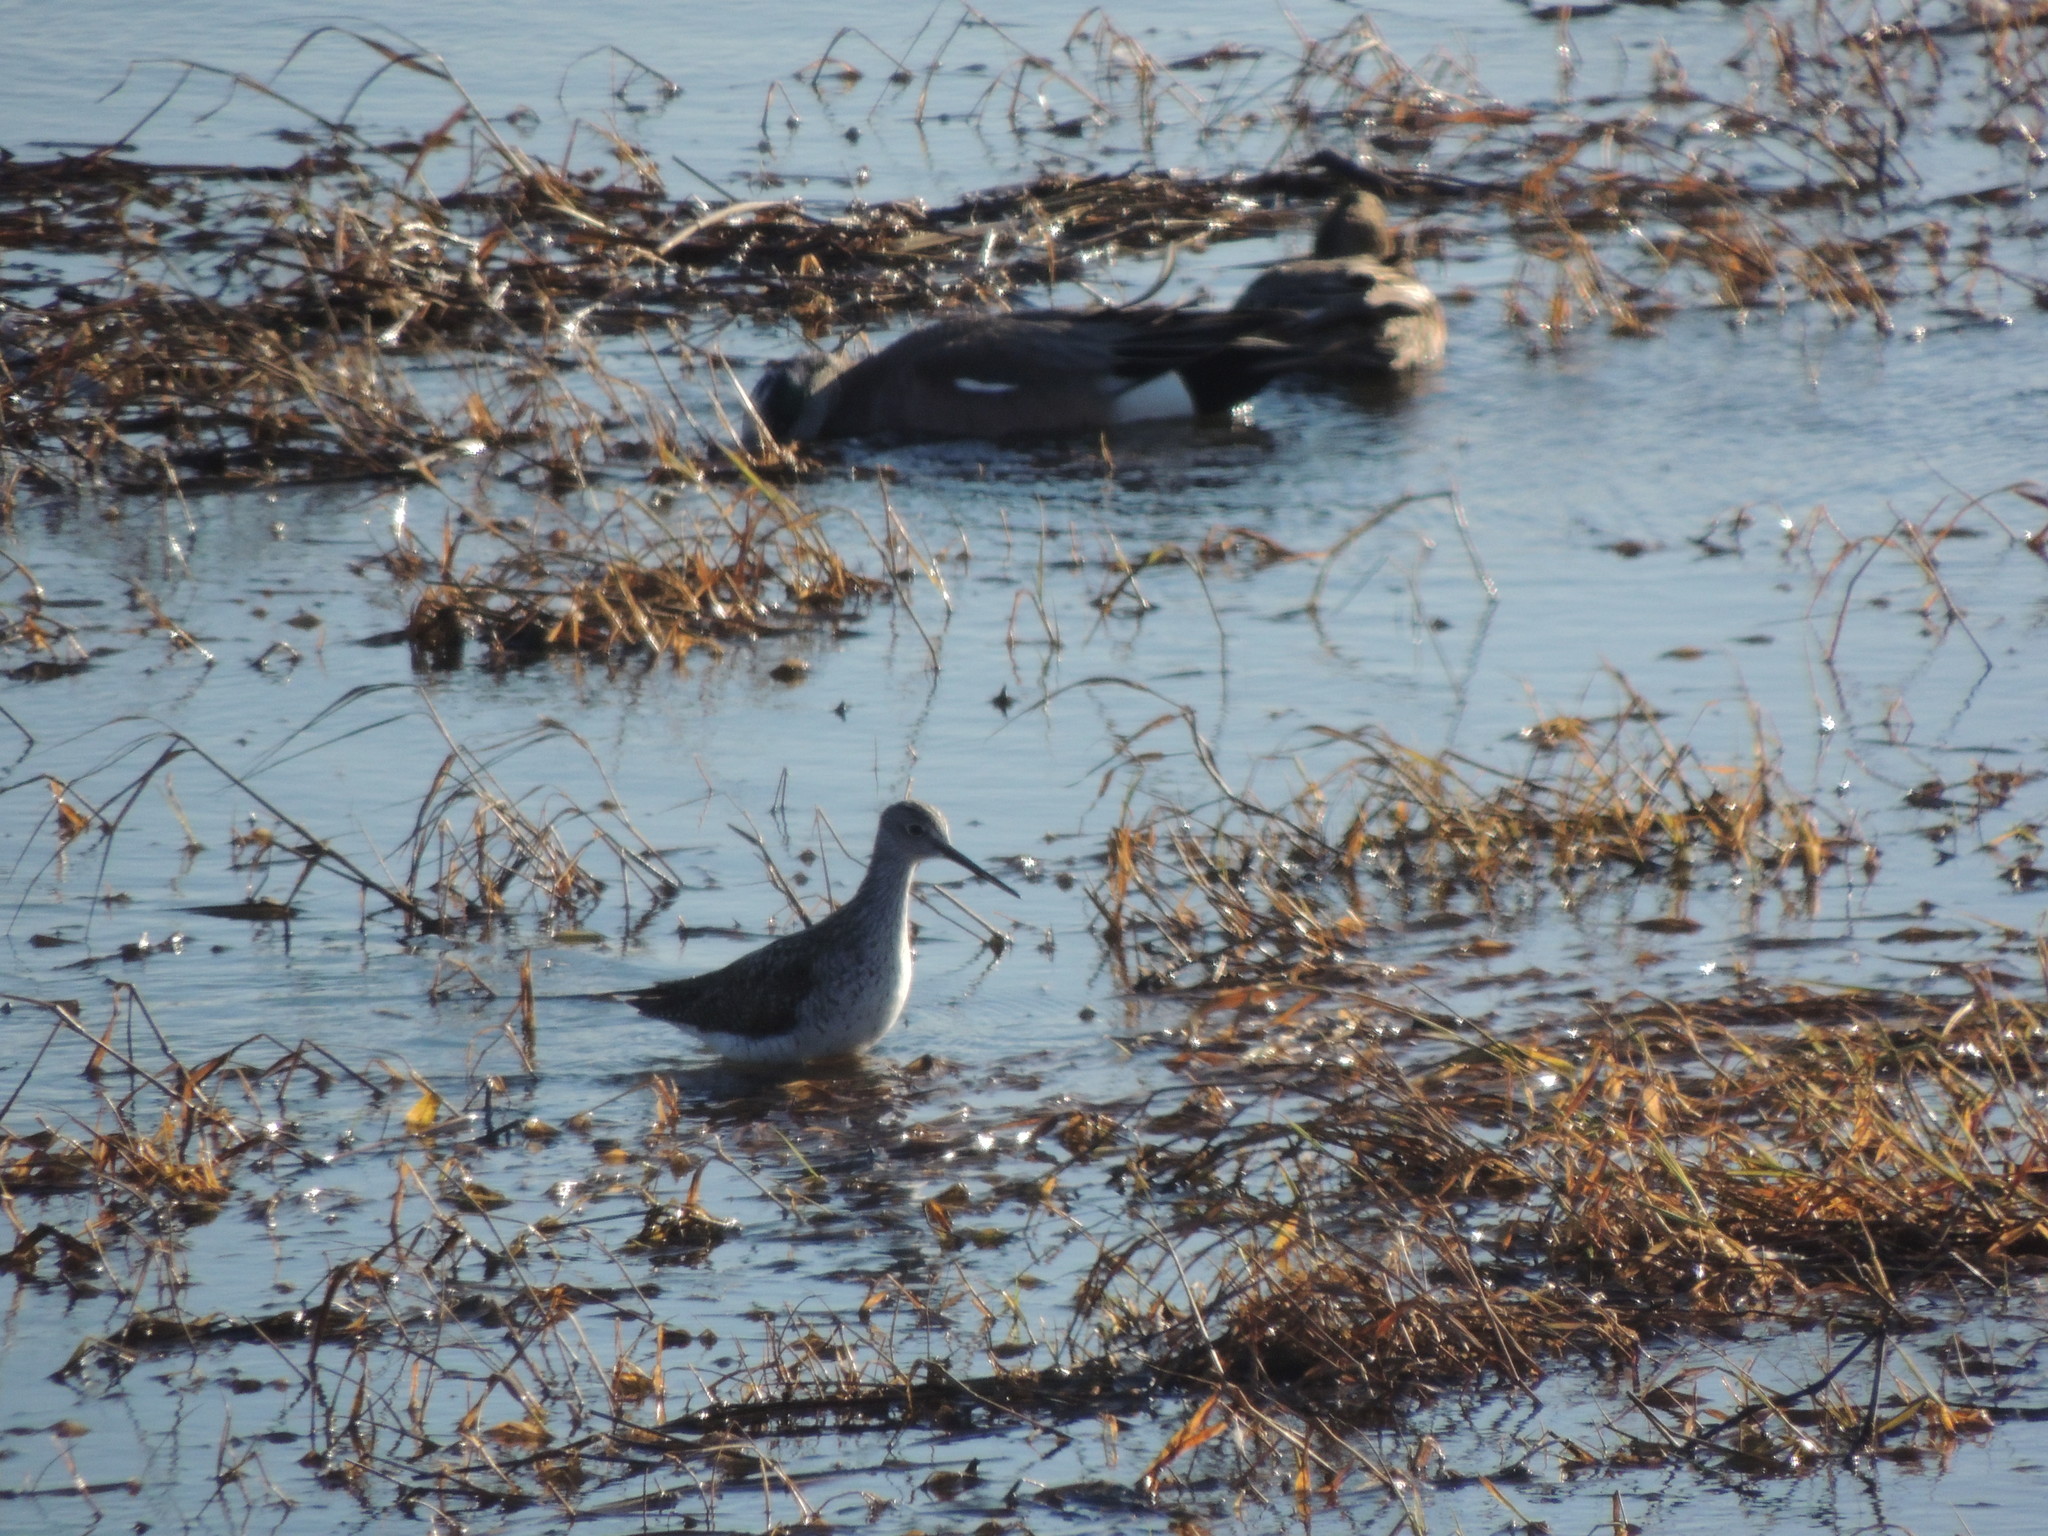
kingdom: Animalia
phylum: Chordata
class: Aves
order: Charadriiformes
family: Scolopacidae
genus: Tringa
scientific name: Tringa melanoleuca
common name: Greater yellowlegs
